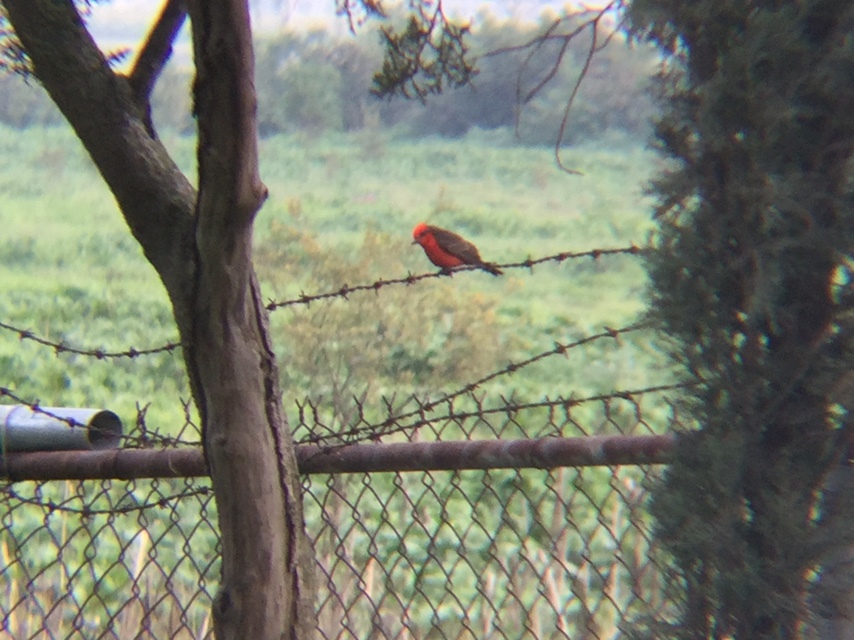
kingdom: Animalia
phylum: Chordata
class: Aves
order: Passeriformes
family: Tyrannidae
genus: Pyrocephalus
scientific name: Pyrocephalus rubinus
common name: Vermilion flycatcher
